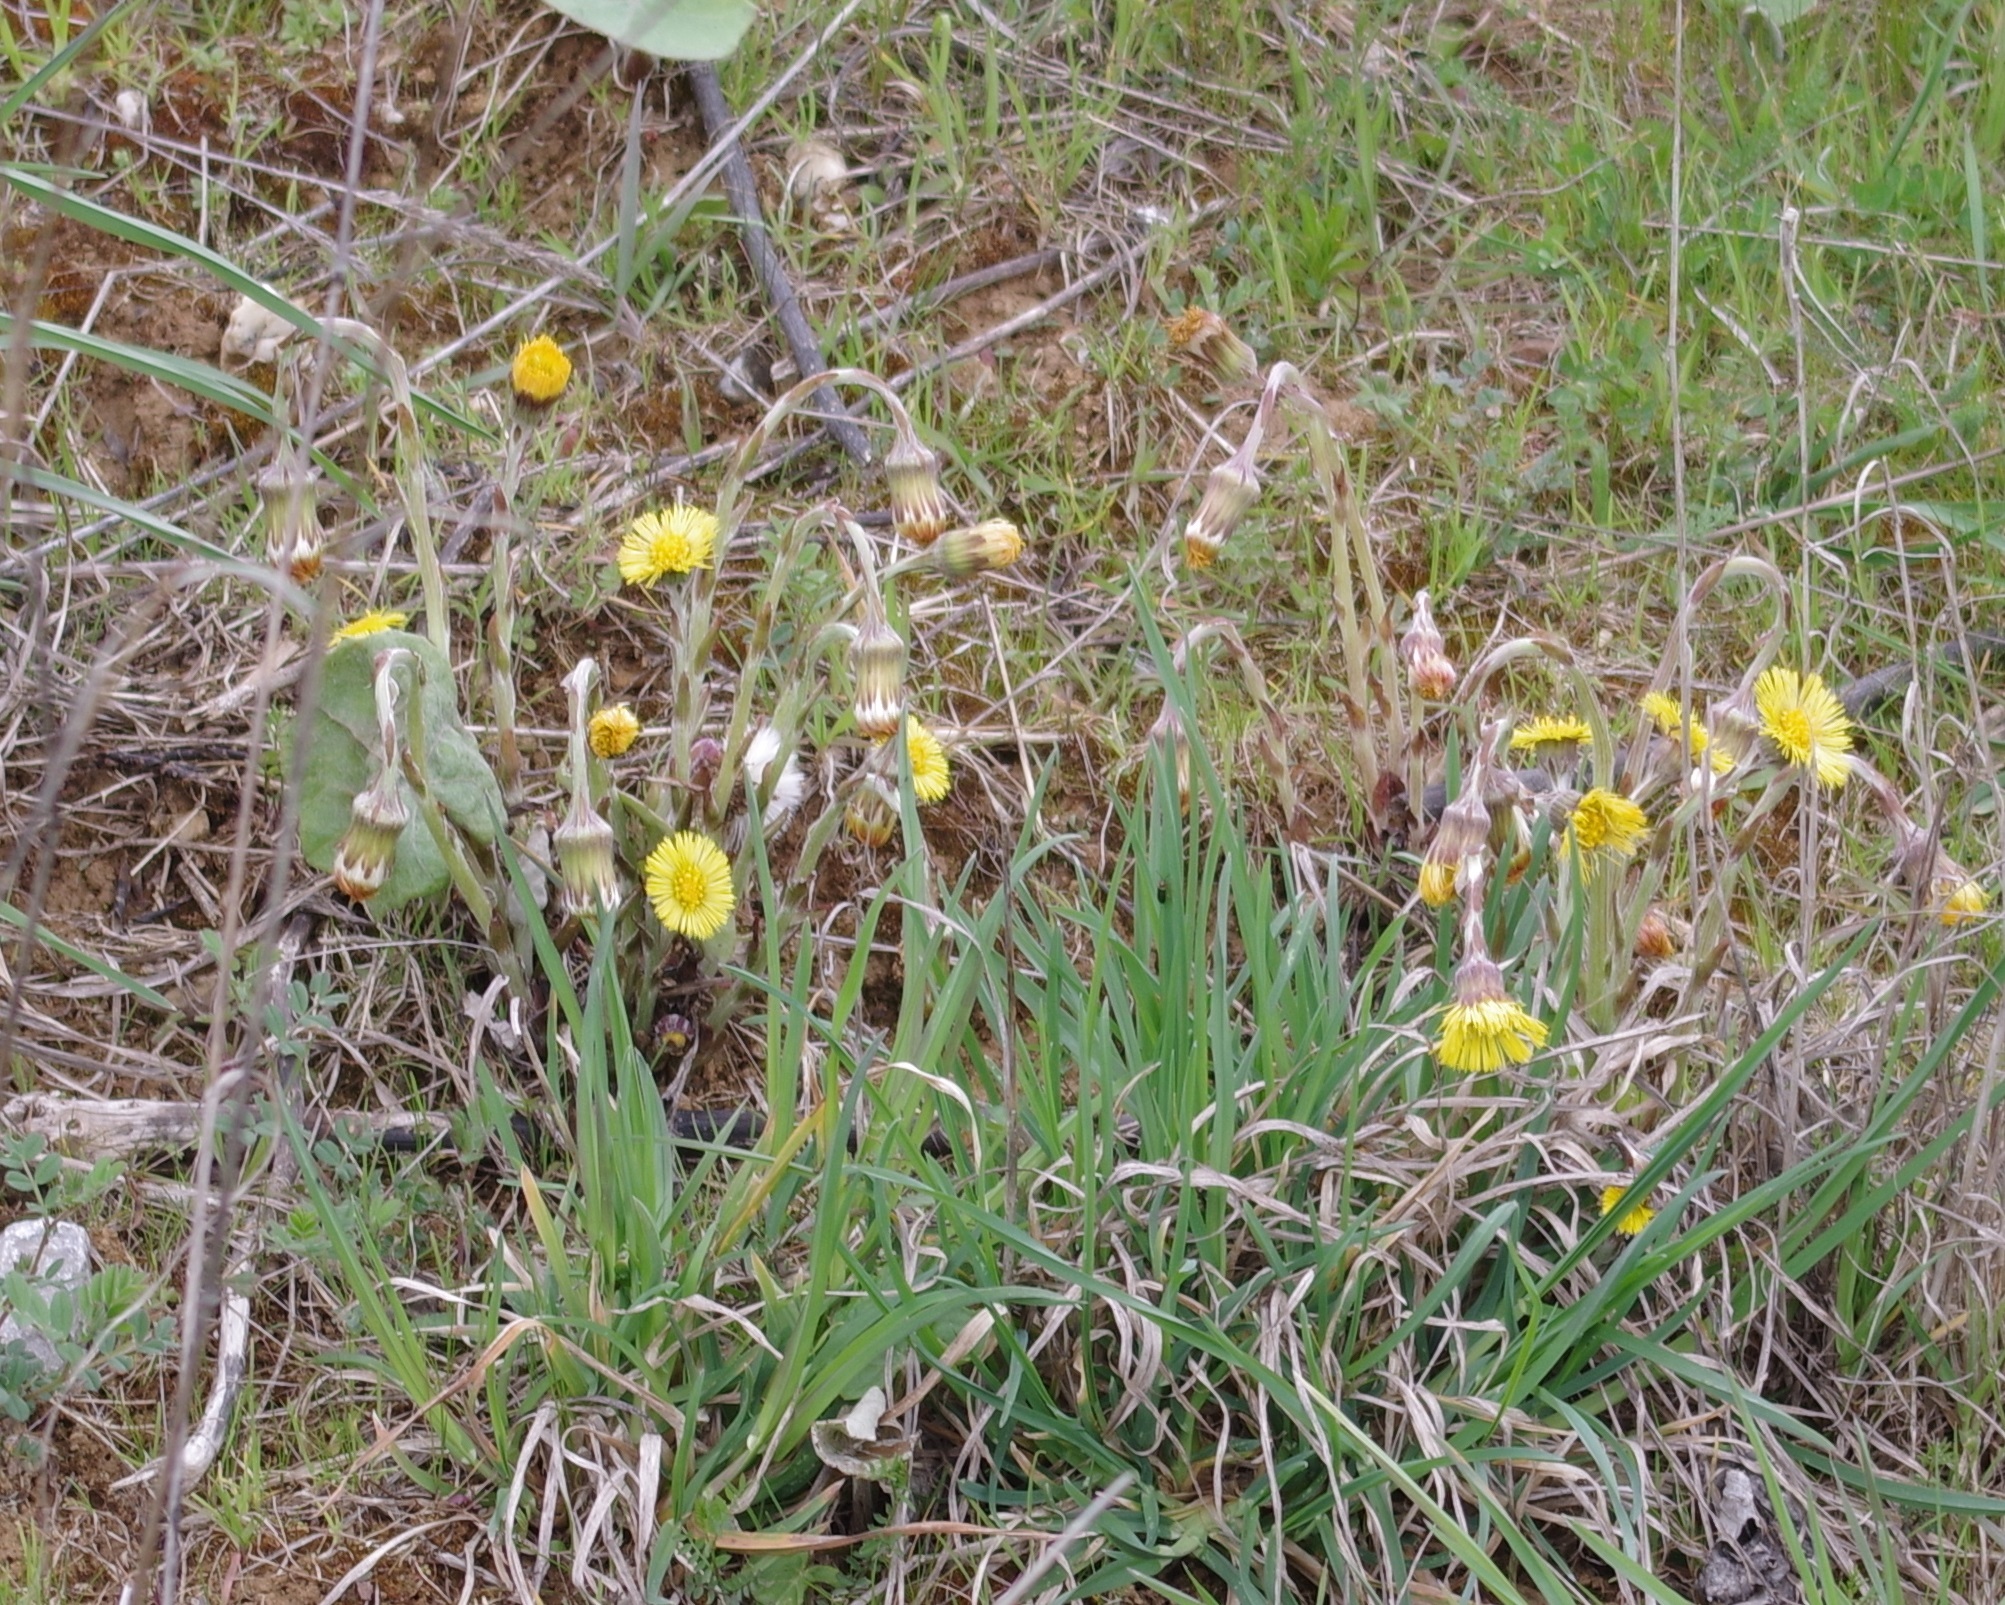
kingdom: Plantae
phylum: Tracheophyta
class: Magnoliopsida
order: Asterales
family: Asteraceae
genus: Tussilago
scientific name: Tussilago farfara
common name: Coltsfoot
